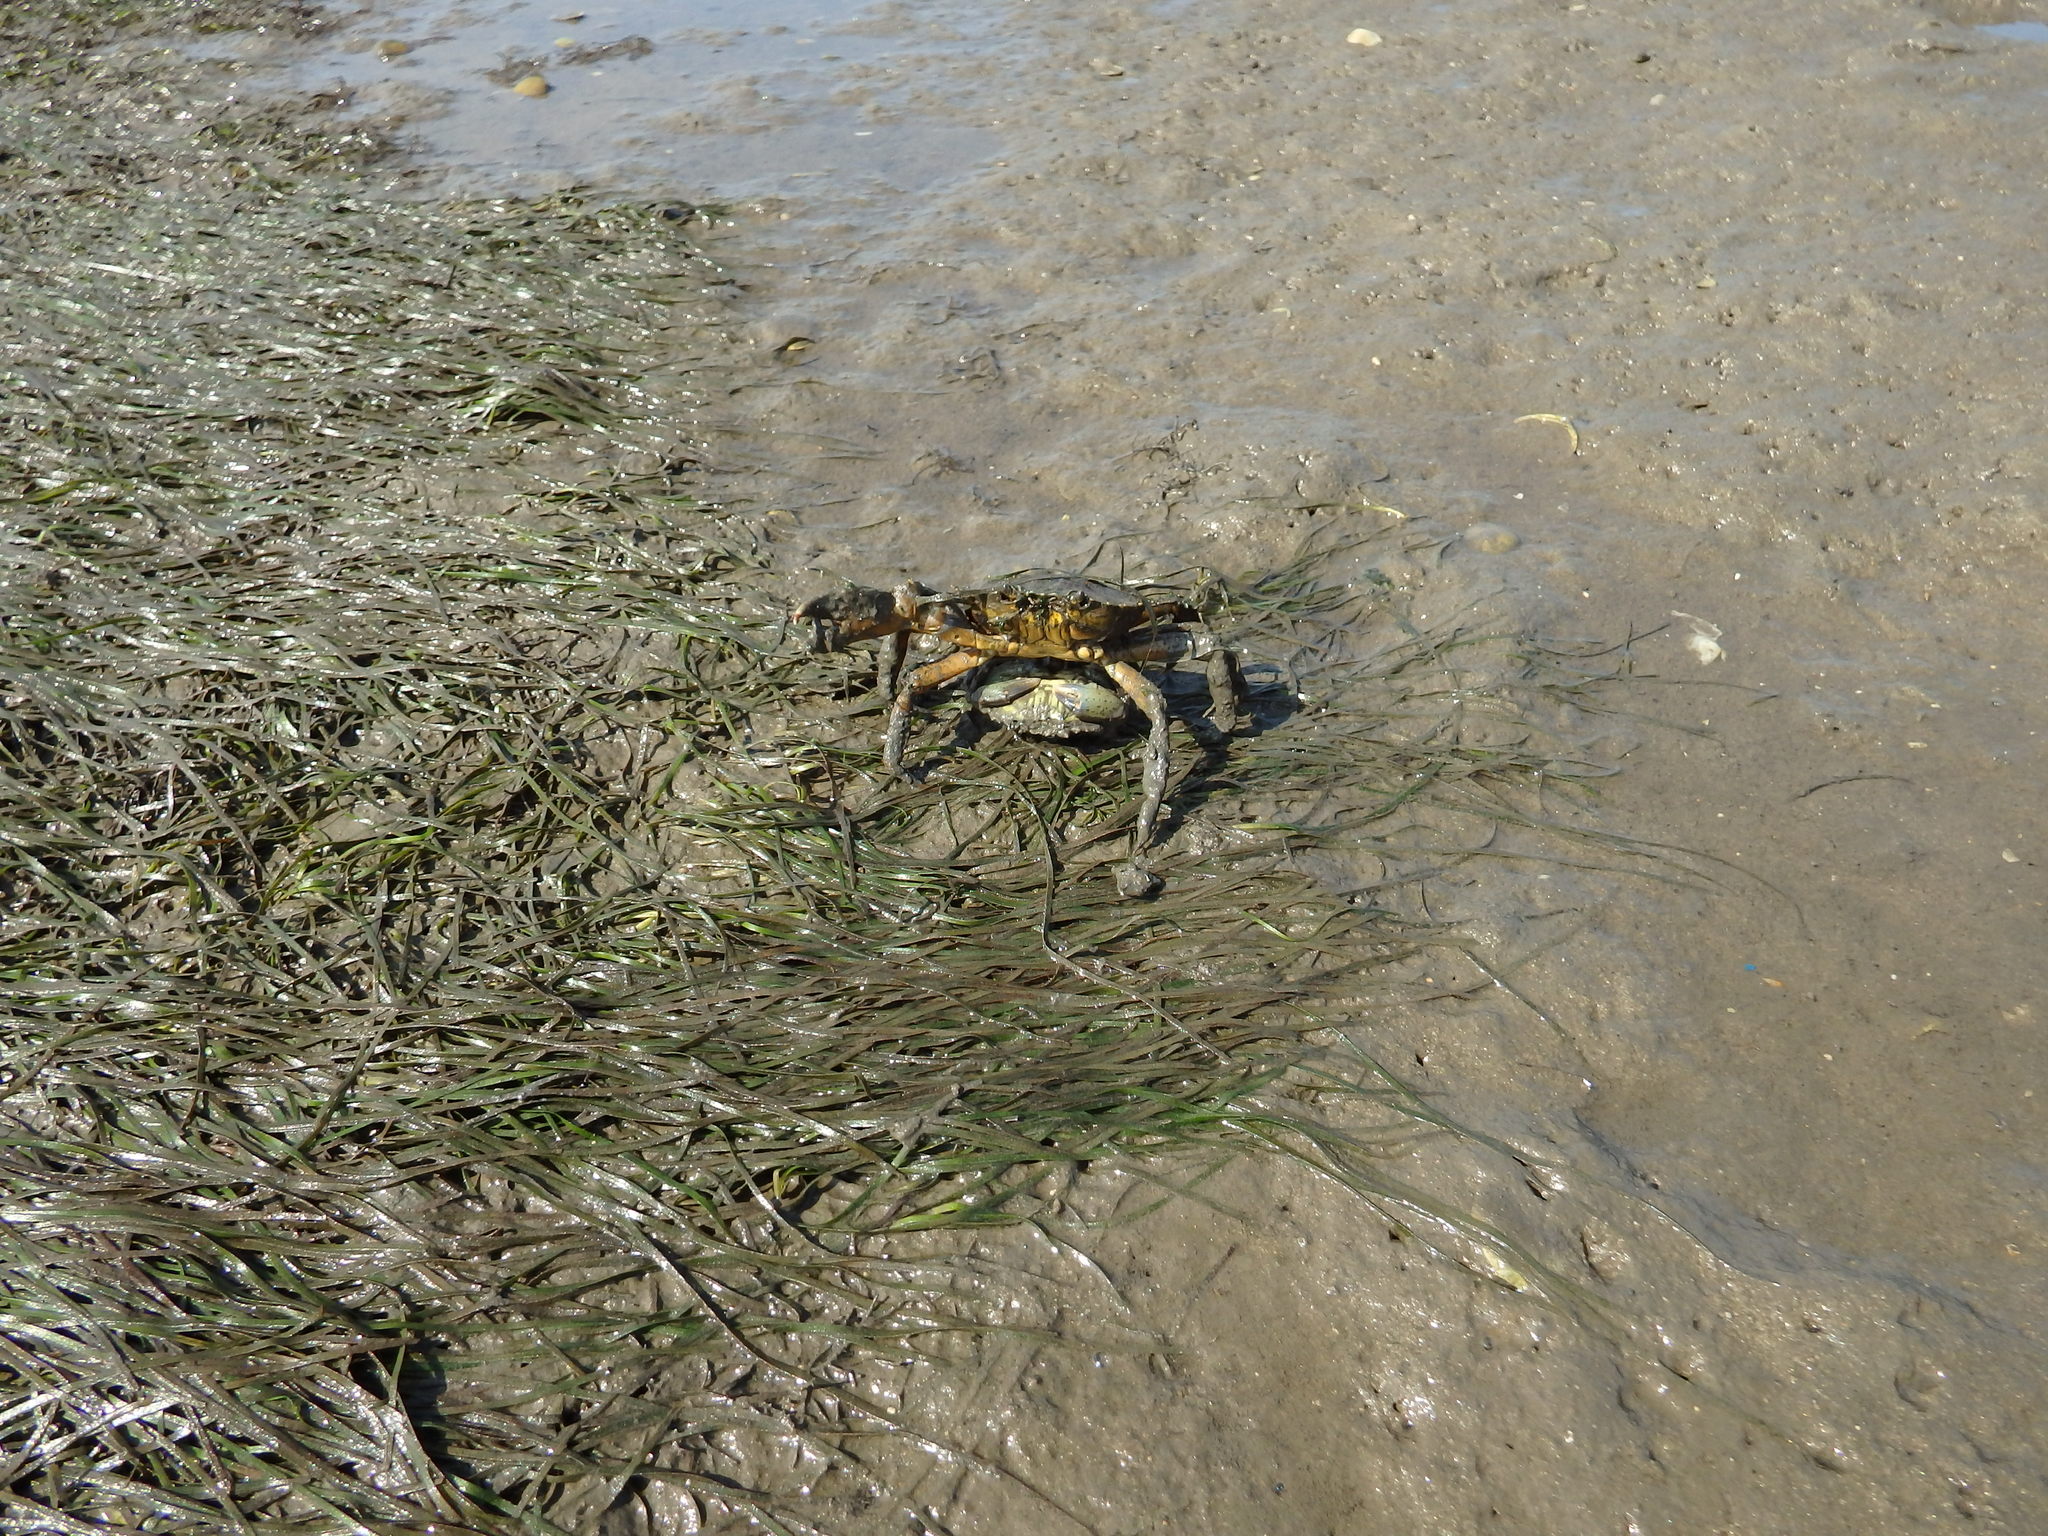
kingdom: Animalia
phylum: Arthropoda
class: Malacostraca
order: Decapoda
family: Carcinidae
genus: Carcinus
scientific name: Carcinus maenas
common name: European green crab
